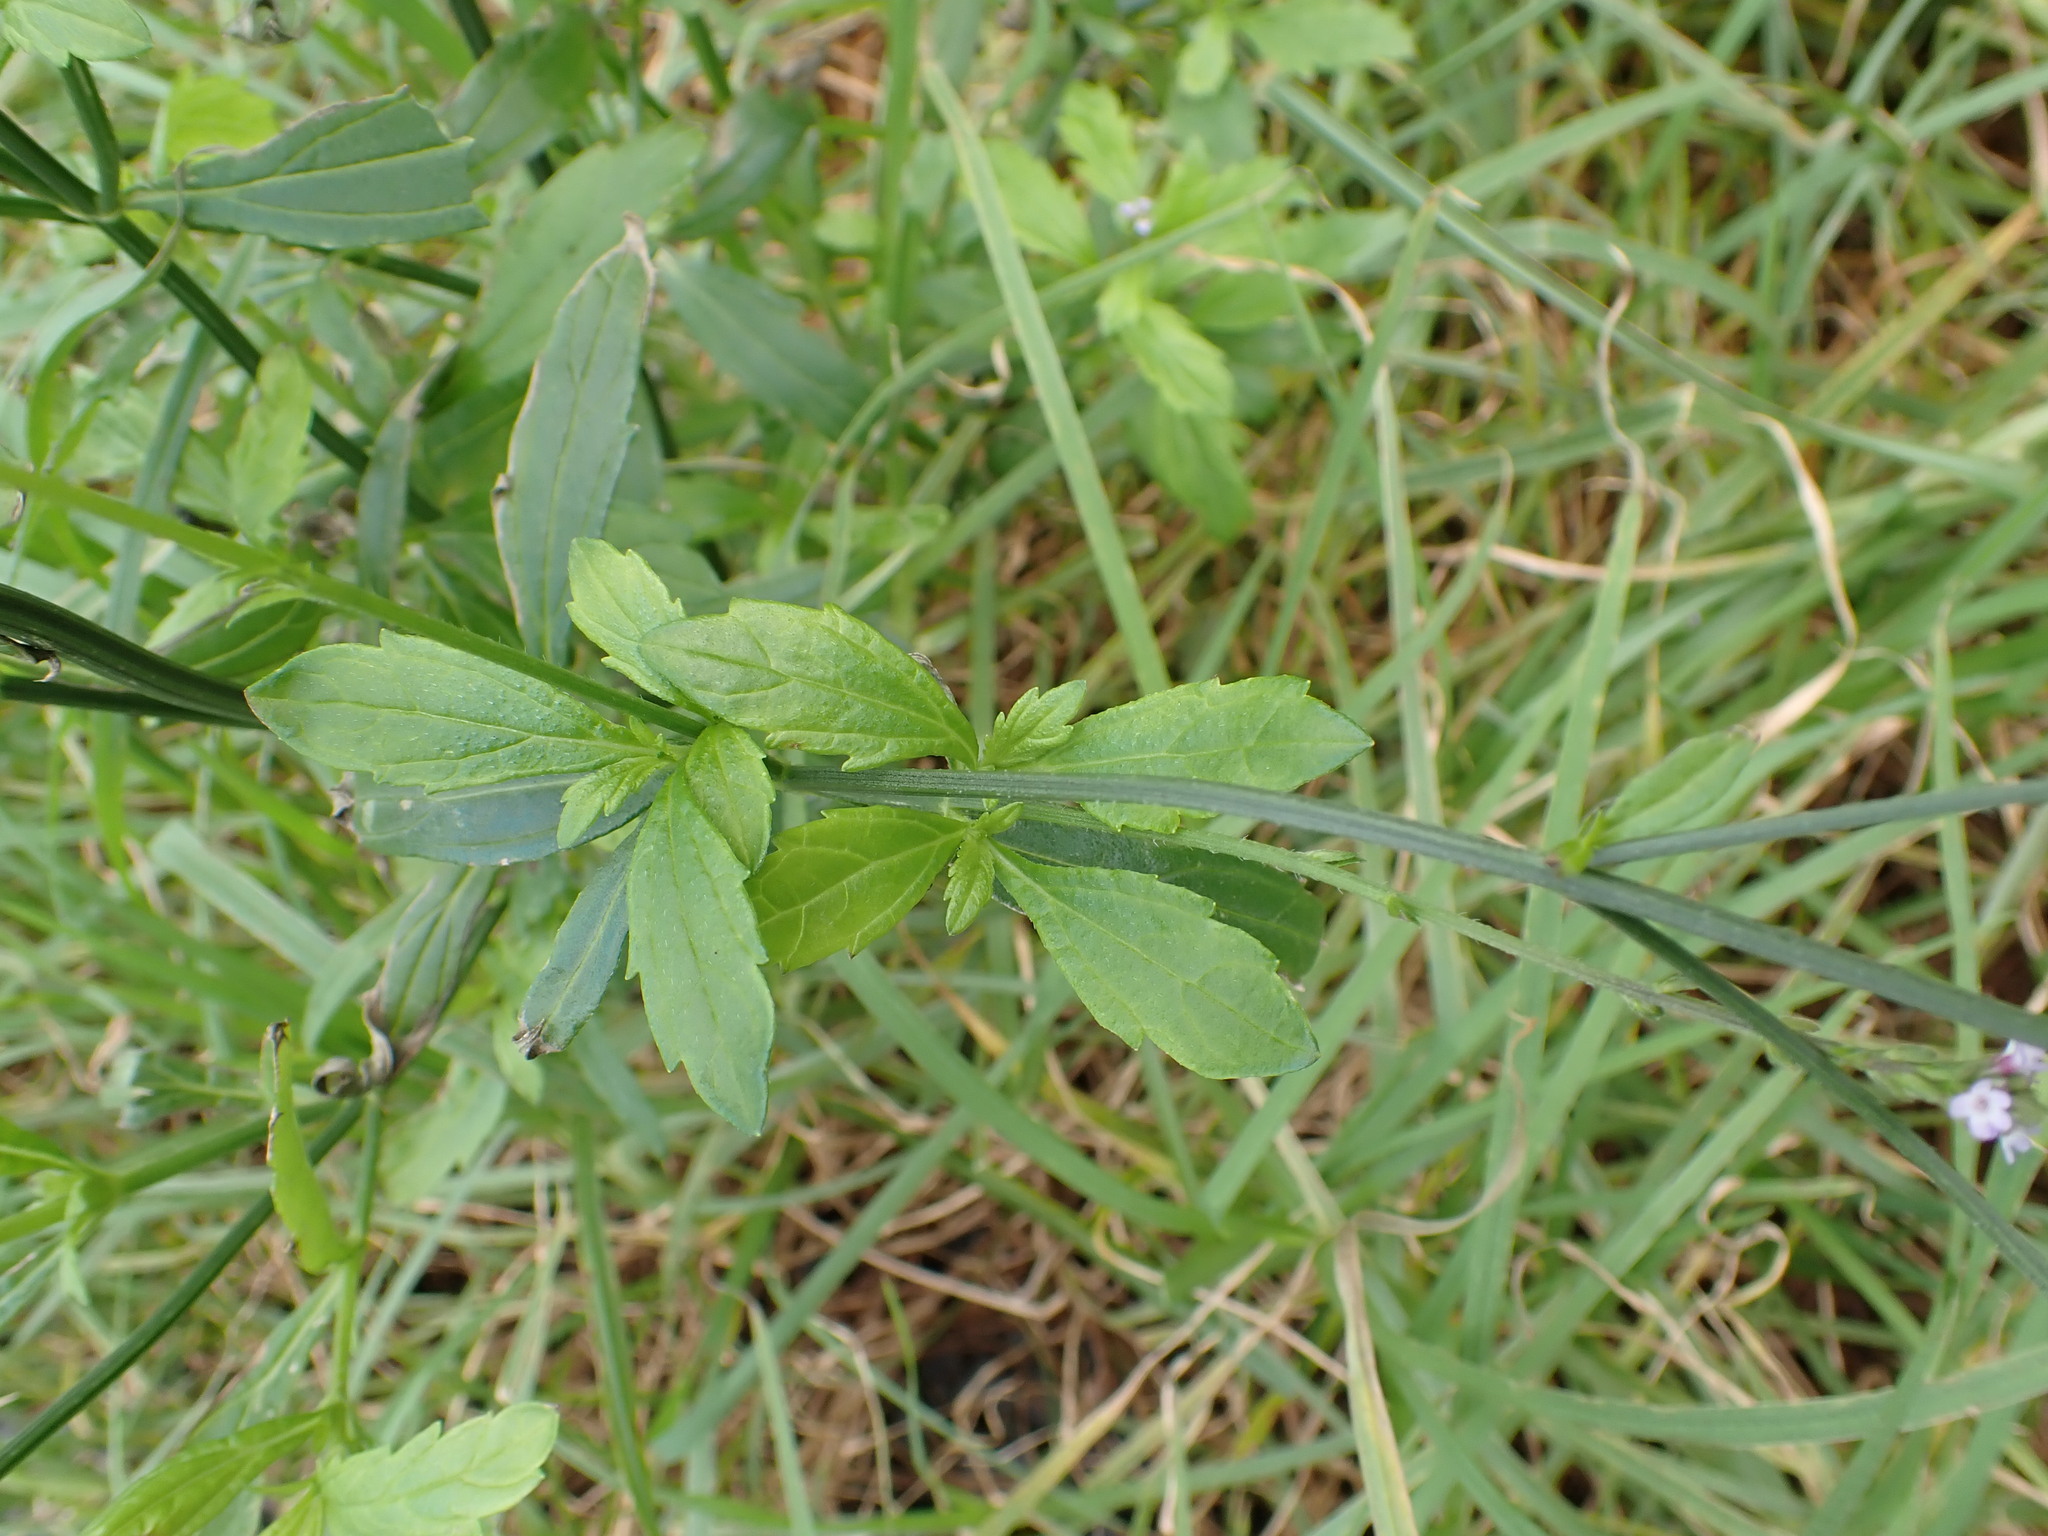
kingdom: Plantae
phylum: Tracheophyta
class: Magnoliopsida
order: Lamiales
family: Verbenaceae
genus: Verbena
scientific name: Verbena litoralis
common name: Seashore vervain
